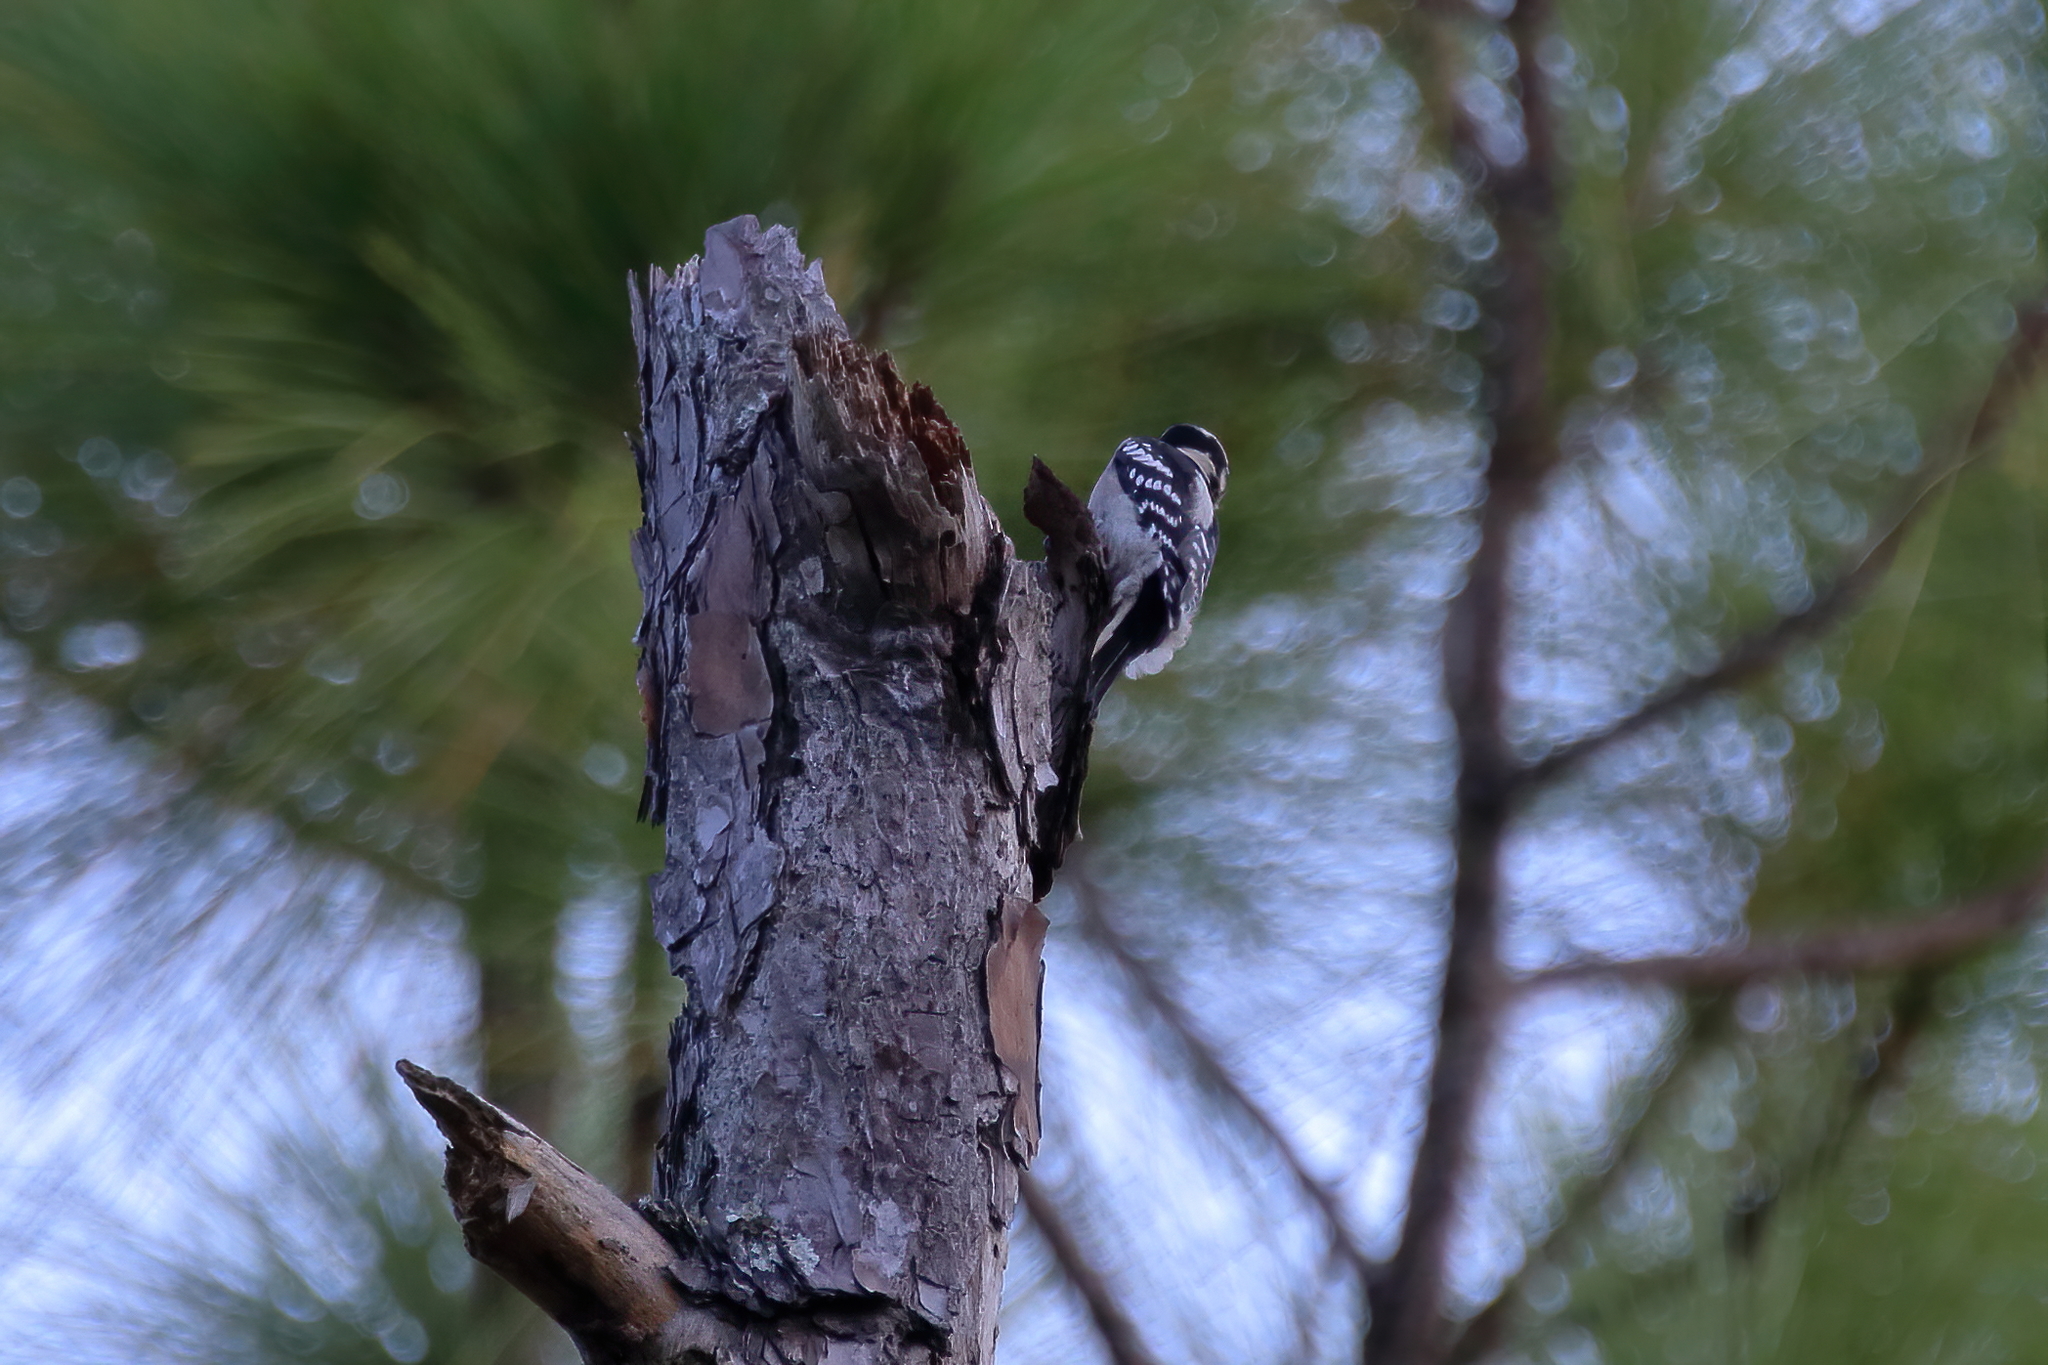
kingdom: Animalia
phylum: Chordata
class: Aves
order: Piciformes
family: Picidae
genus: Dryobates
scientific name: Dryobates pubescens
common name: Downy woodpecker
